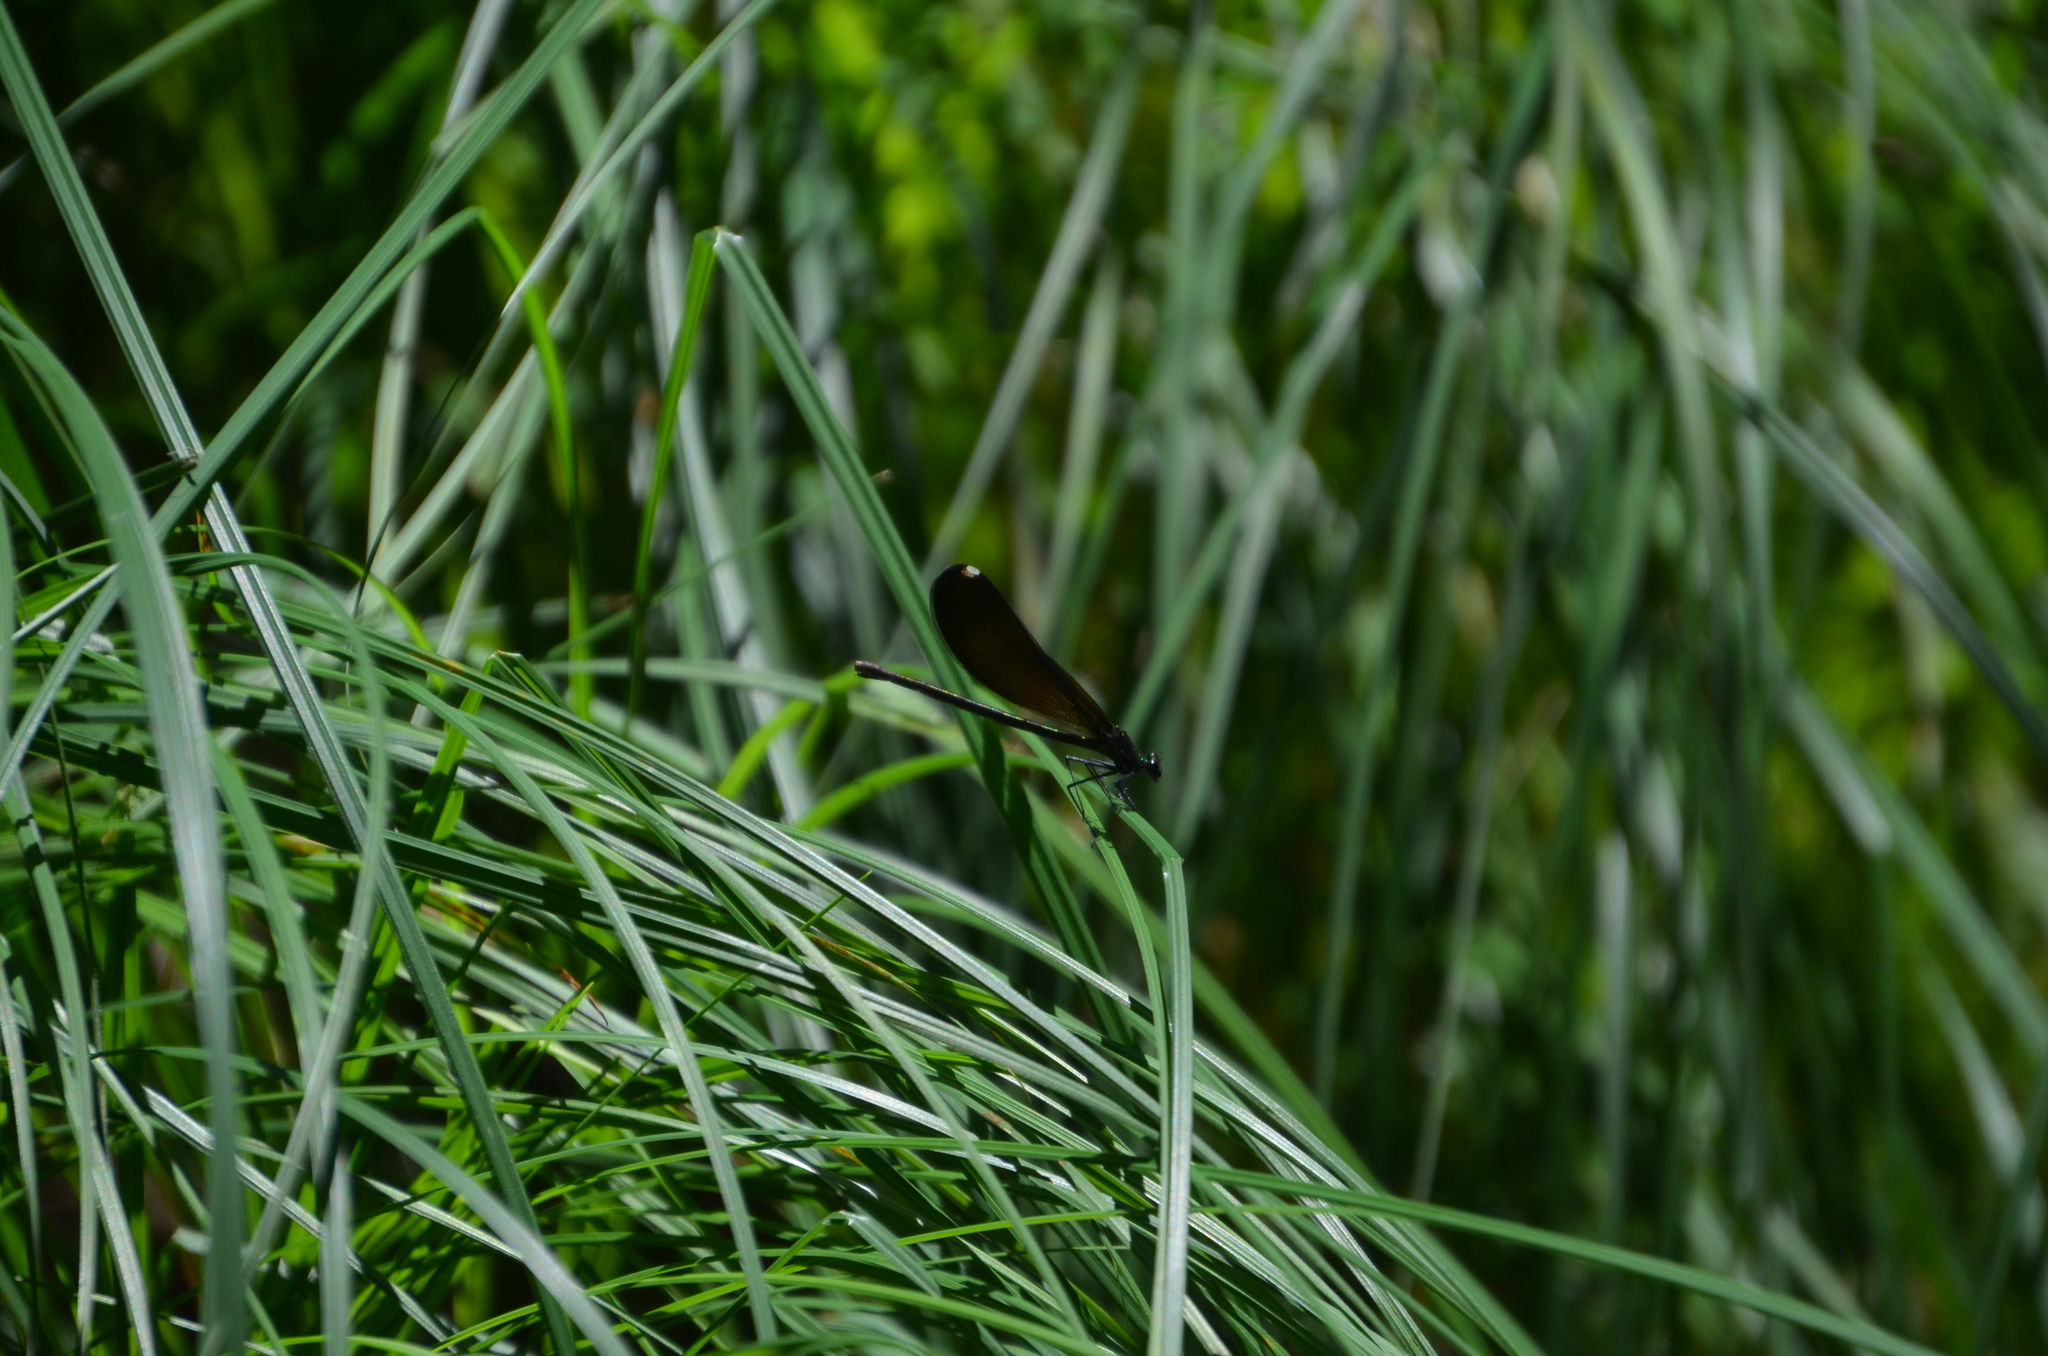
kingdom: Animalia
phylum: Arthropoda
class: Insecta
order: Odonata
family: Calopterygidae
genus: Calopteryx
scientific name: Calopteryx maculata
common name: Ebony jewelwing
